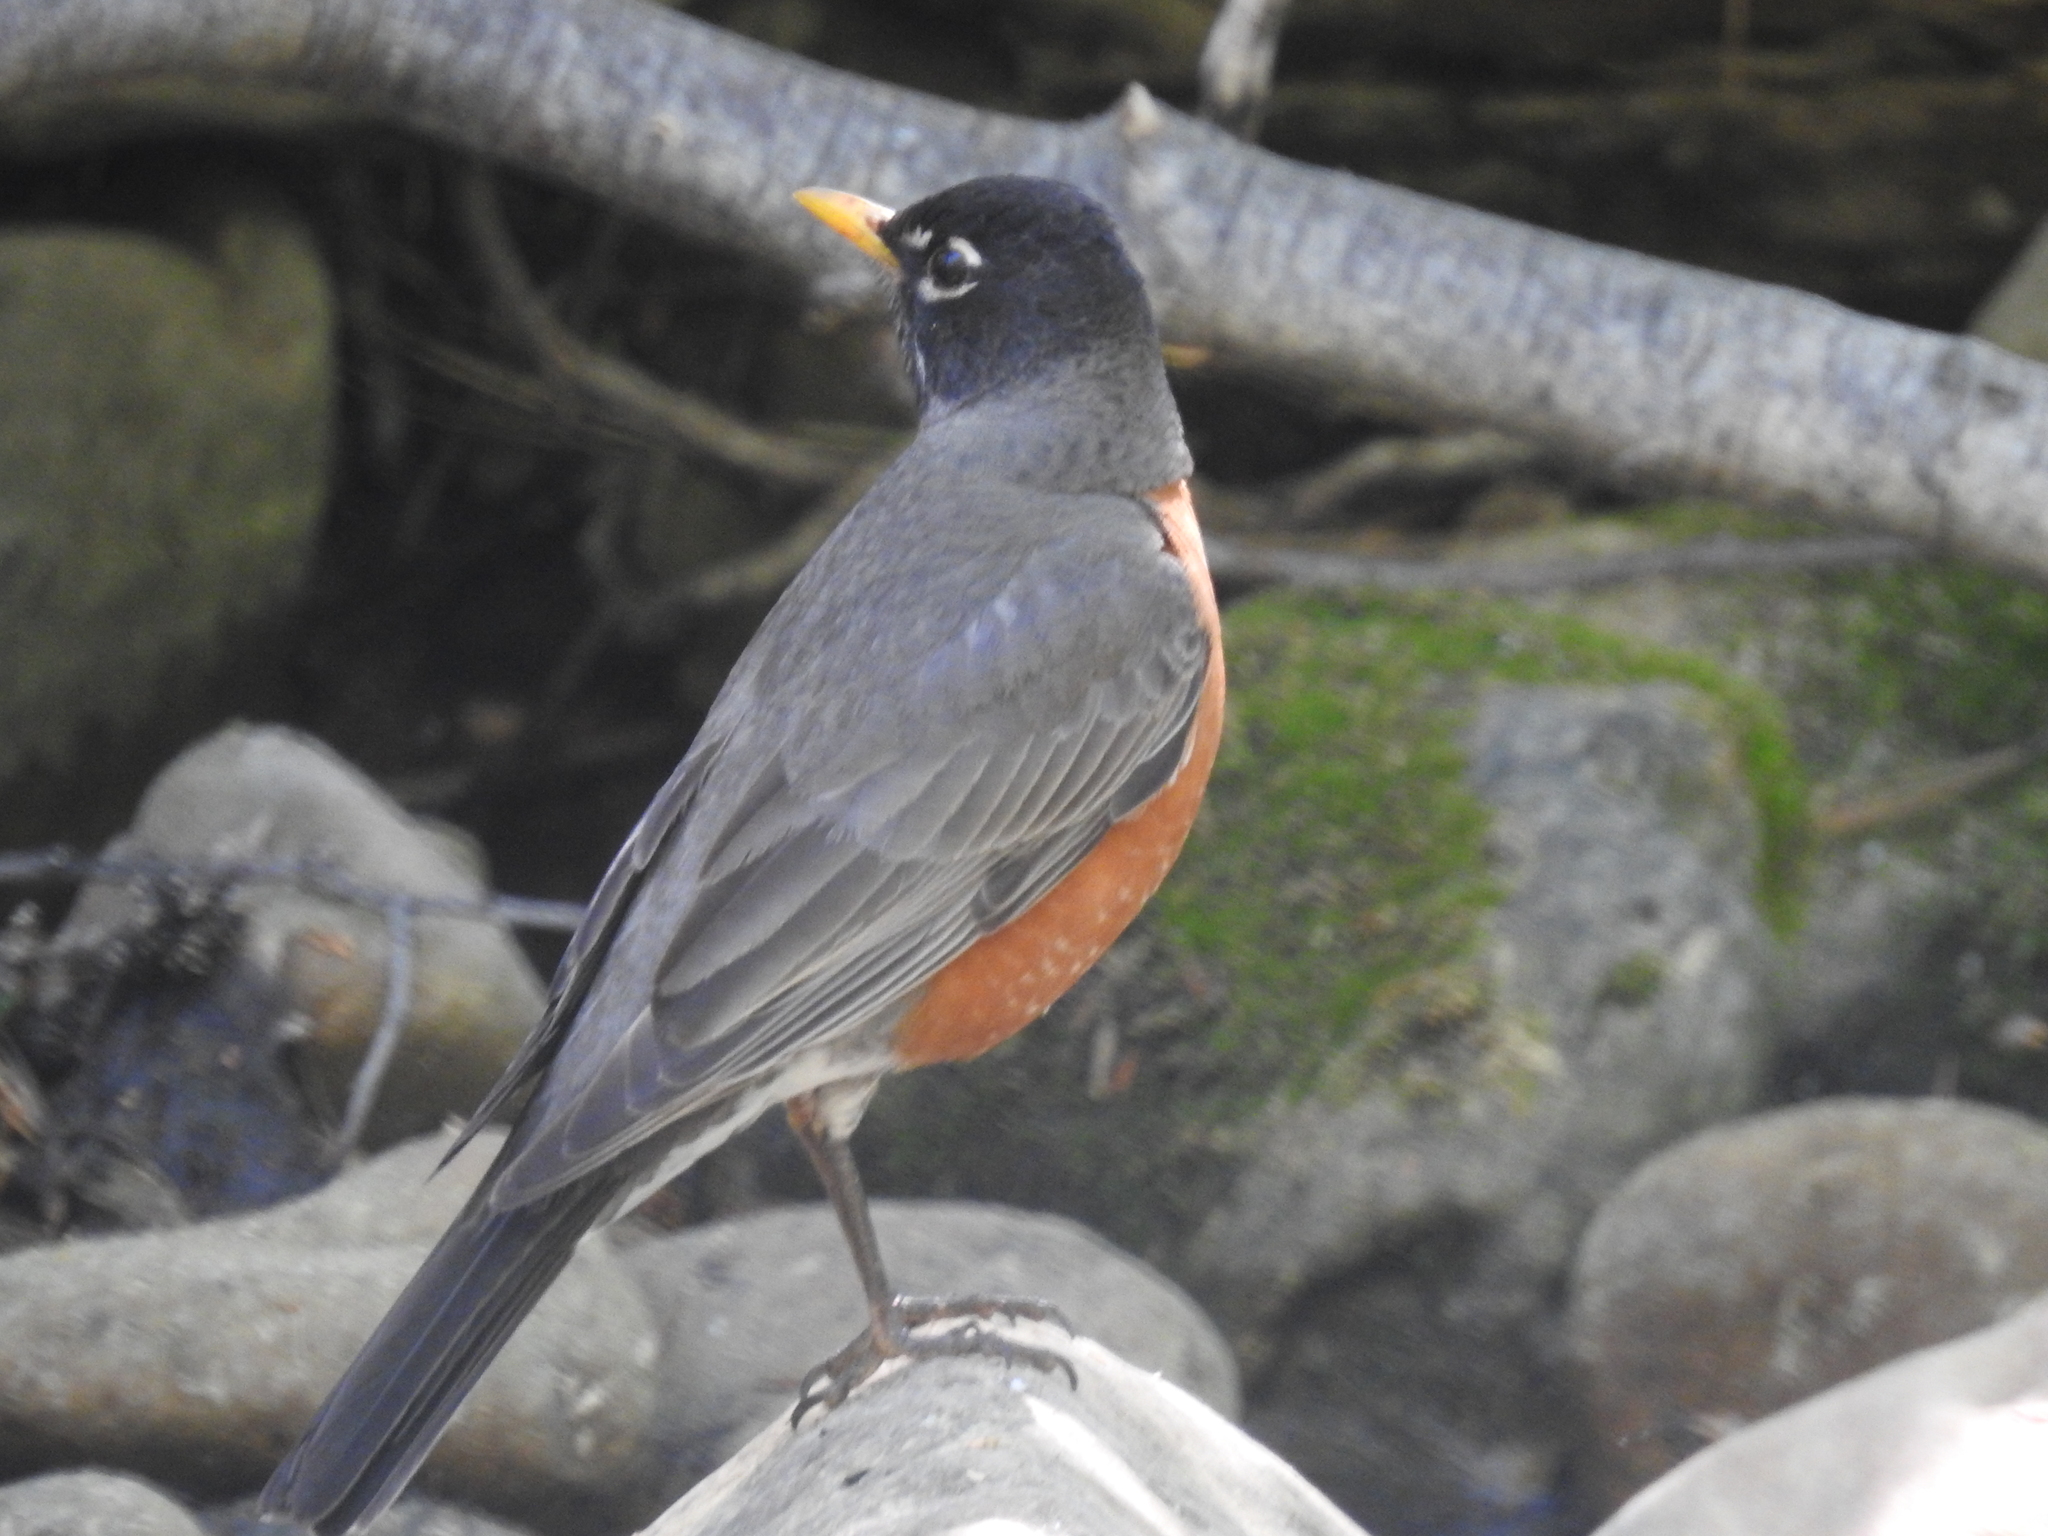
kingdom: Animalia
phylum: Chordata
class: Aves
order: Passeriformes
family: Turdidae
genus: Turdus
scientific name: Turdus migratorius
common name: American robin
